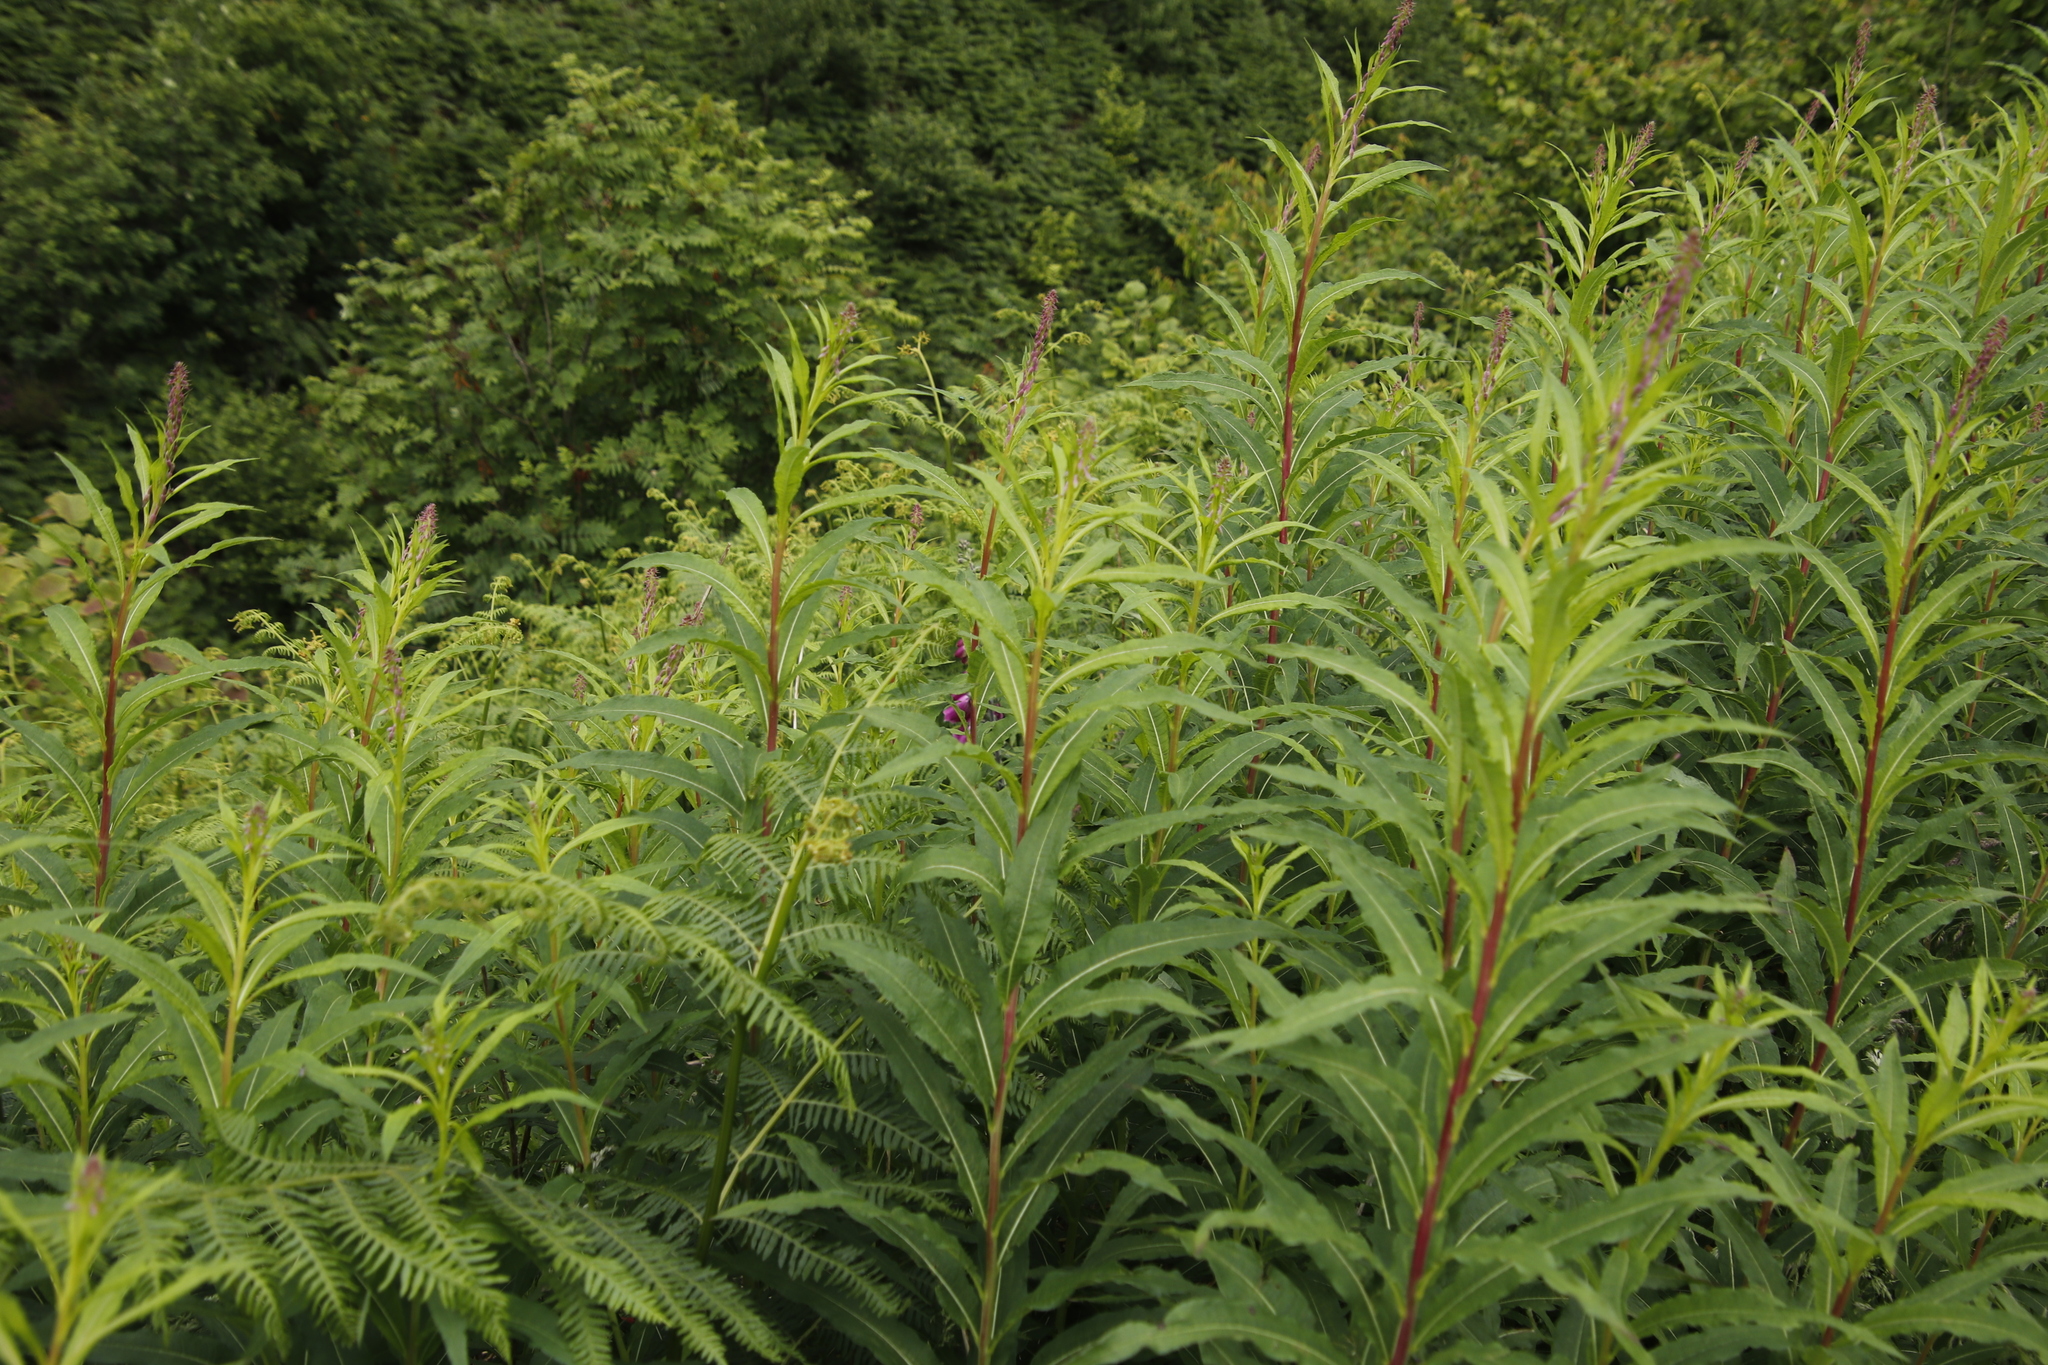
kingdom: Plantae
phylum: Tracheophyta
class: Magnoliopsida
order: Myrtales
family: Onagraceae
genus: Chamaenerion
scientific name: Chamaenerion angustifolium
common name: Fireweed
